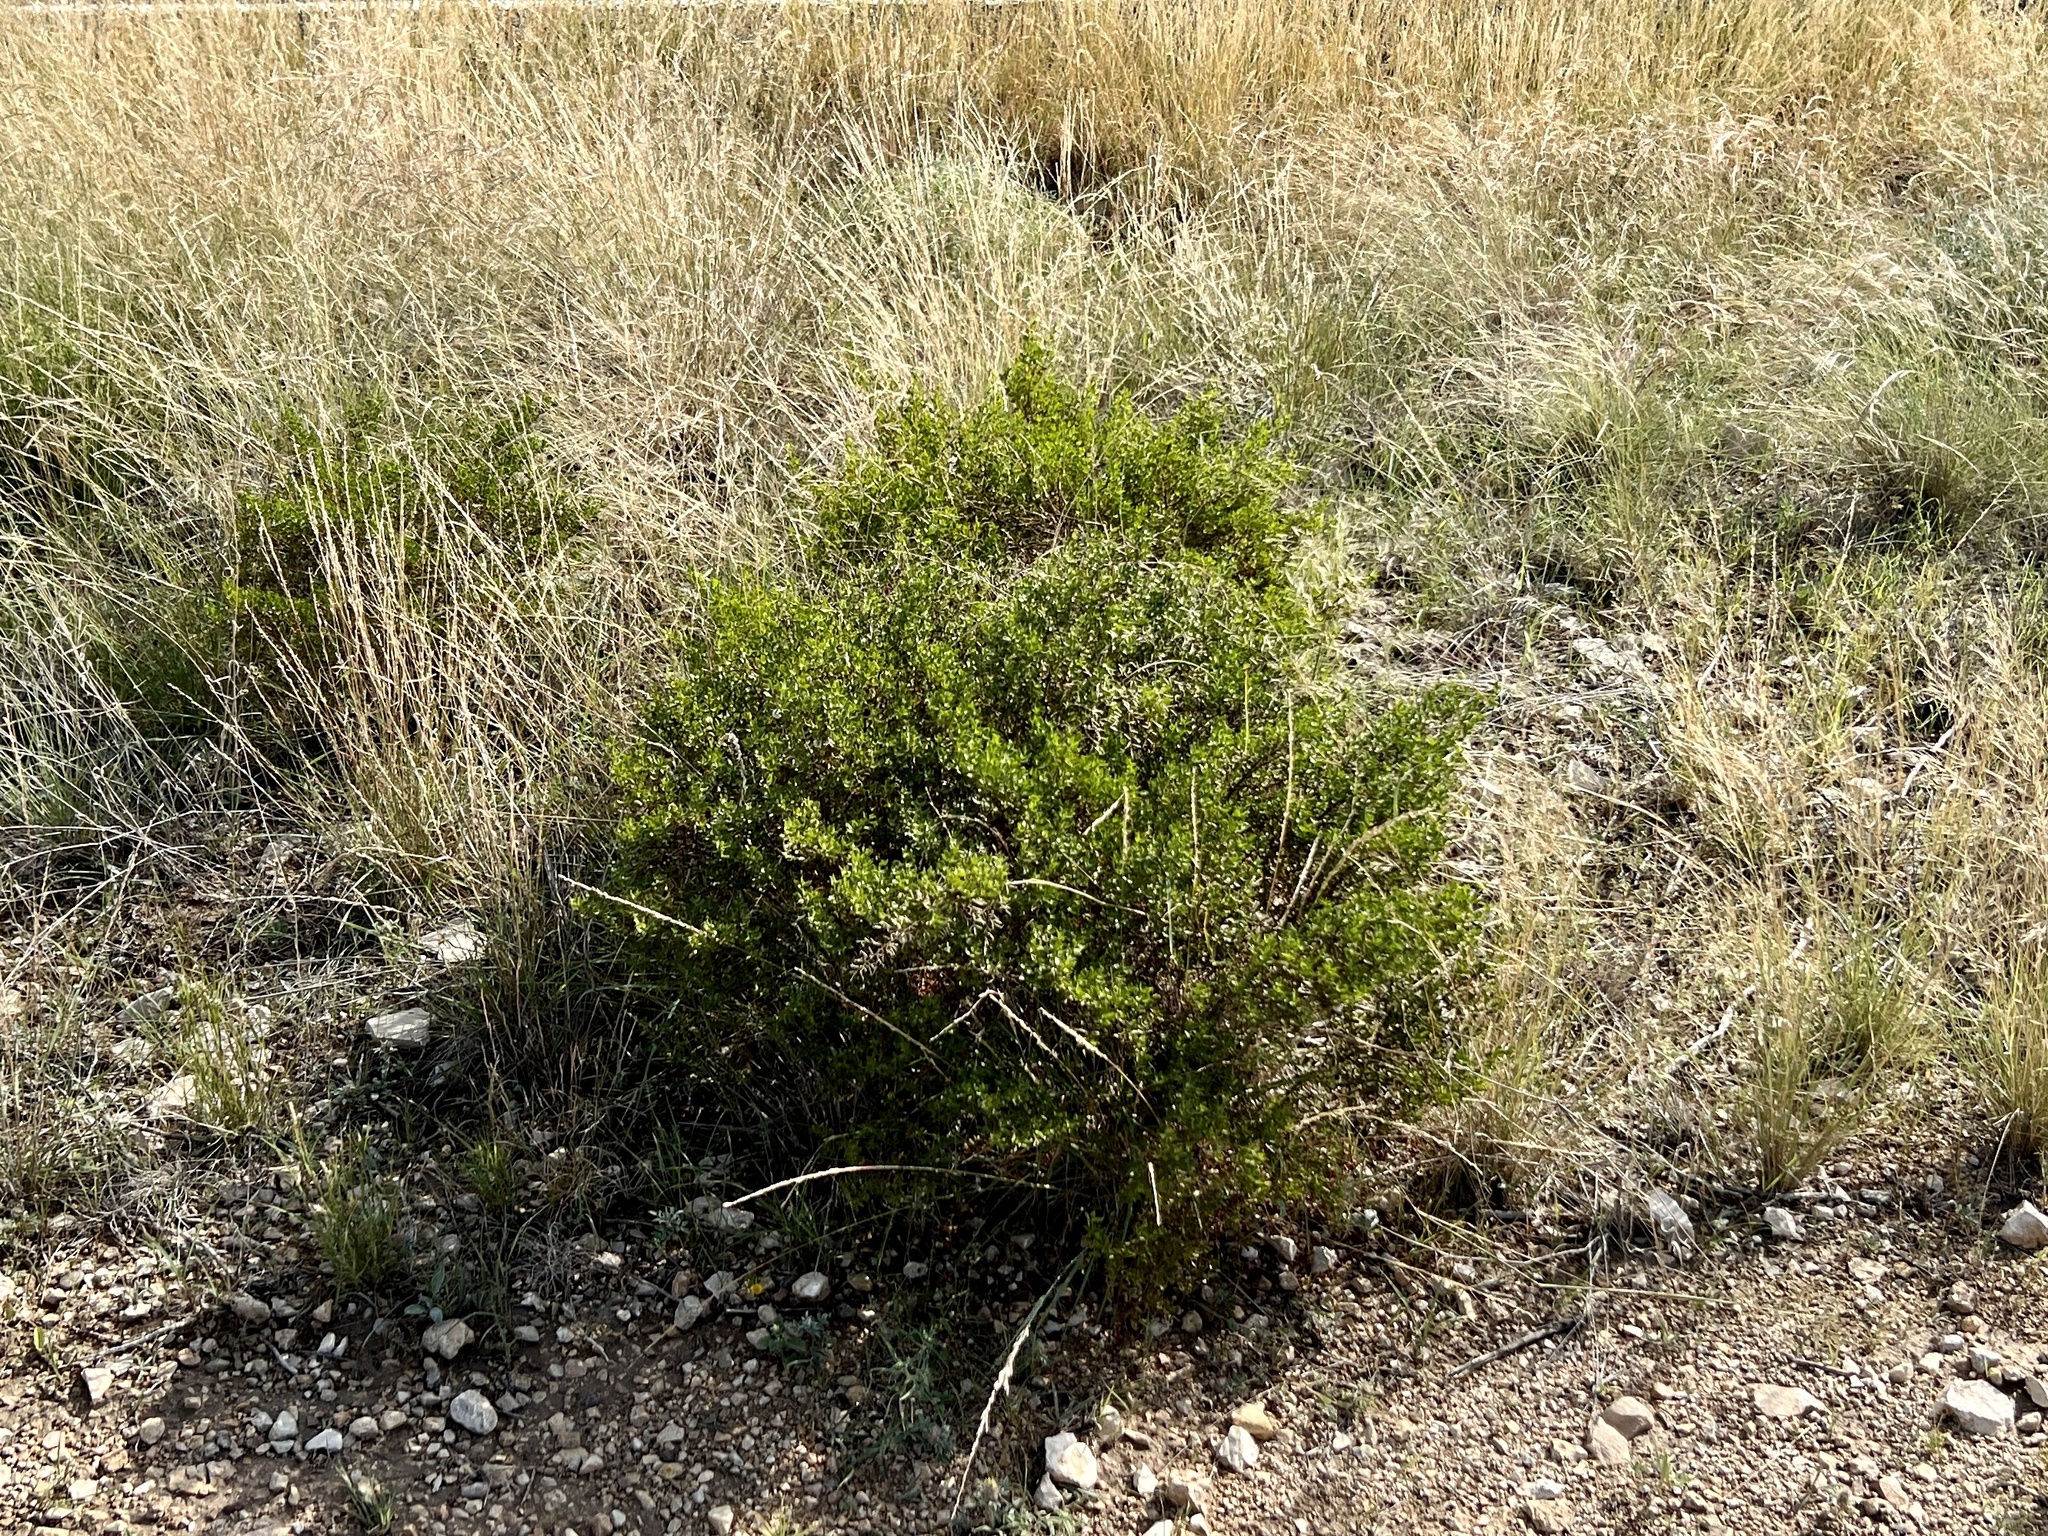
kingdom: Plantae
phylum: Tracheophyta
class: Magnoliopsida
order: Zygophyllales
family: Zygophyllaceae
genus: Larrea
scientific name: Larrea tridentata
